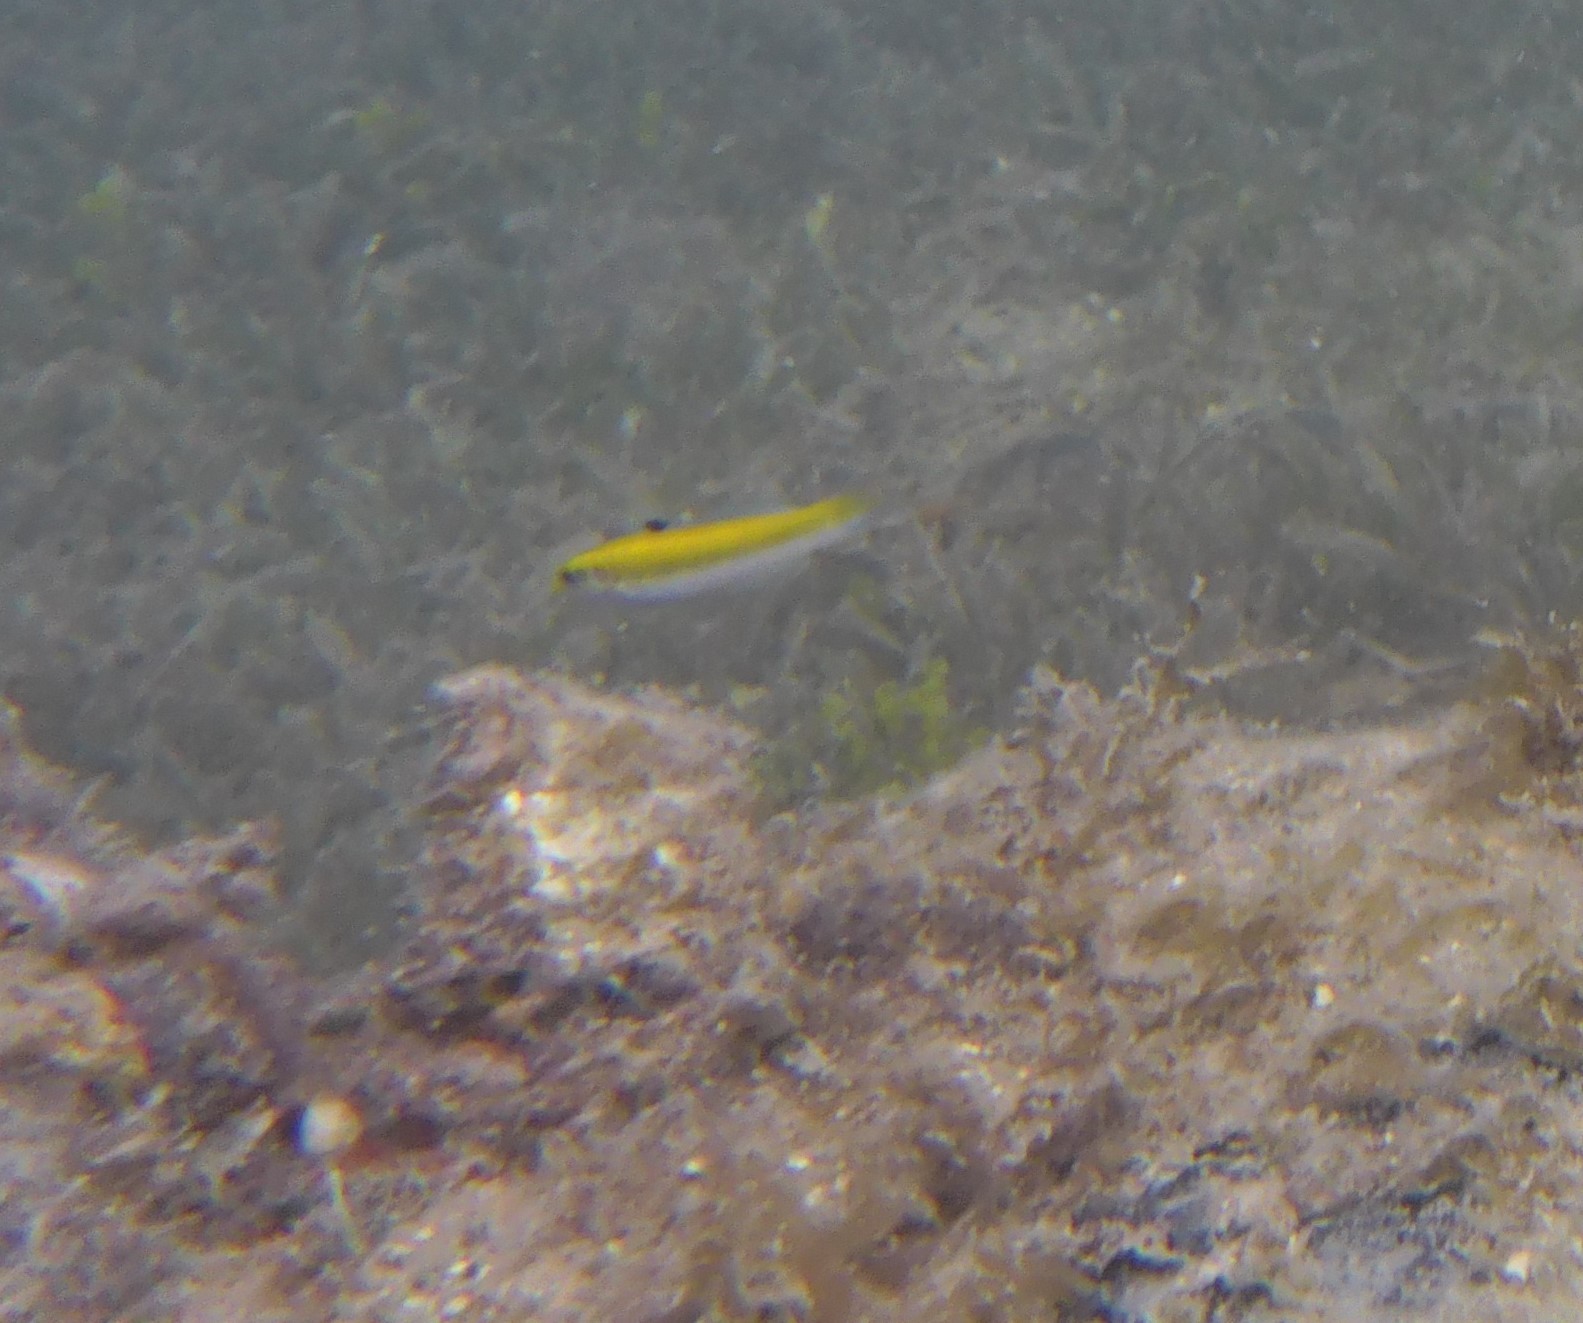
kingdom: Animalia
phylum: Chordata
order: Perciformes
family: Labridae
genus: Thalassoma
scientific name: Thalassoma bifasciatum
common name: Bluehead wrasse
